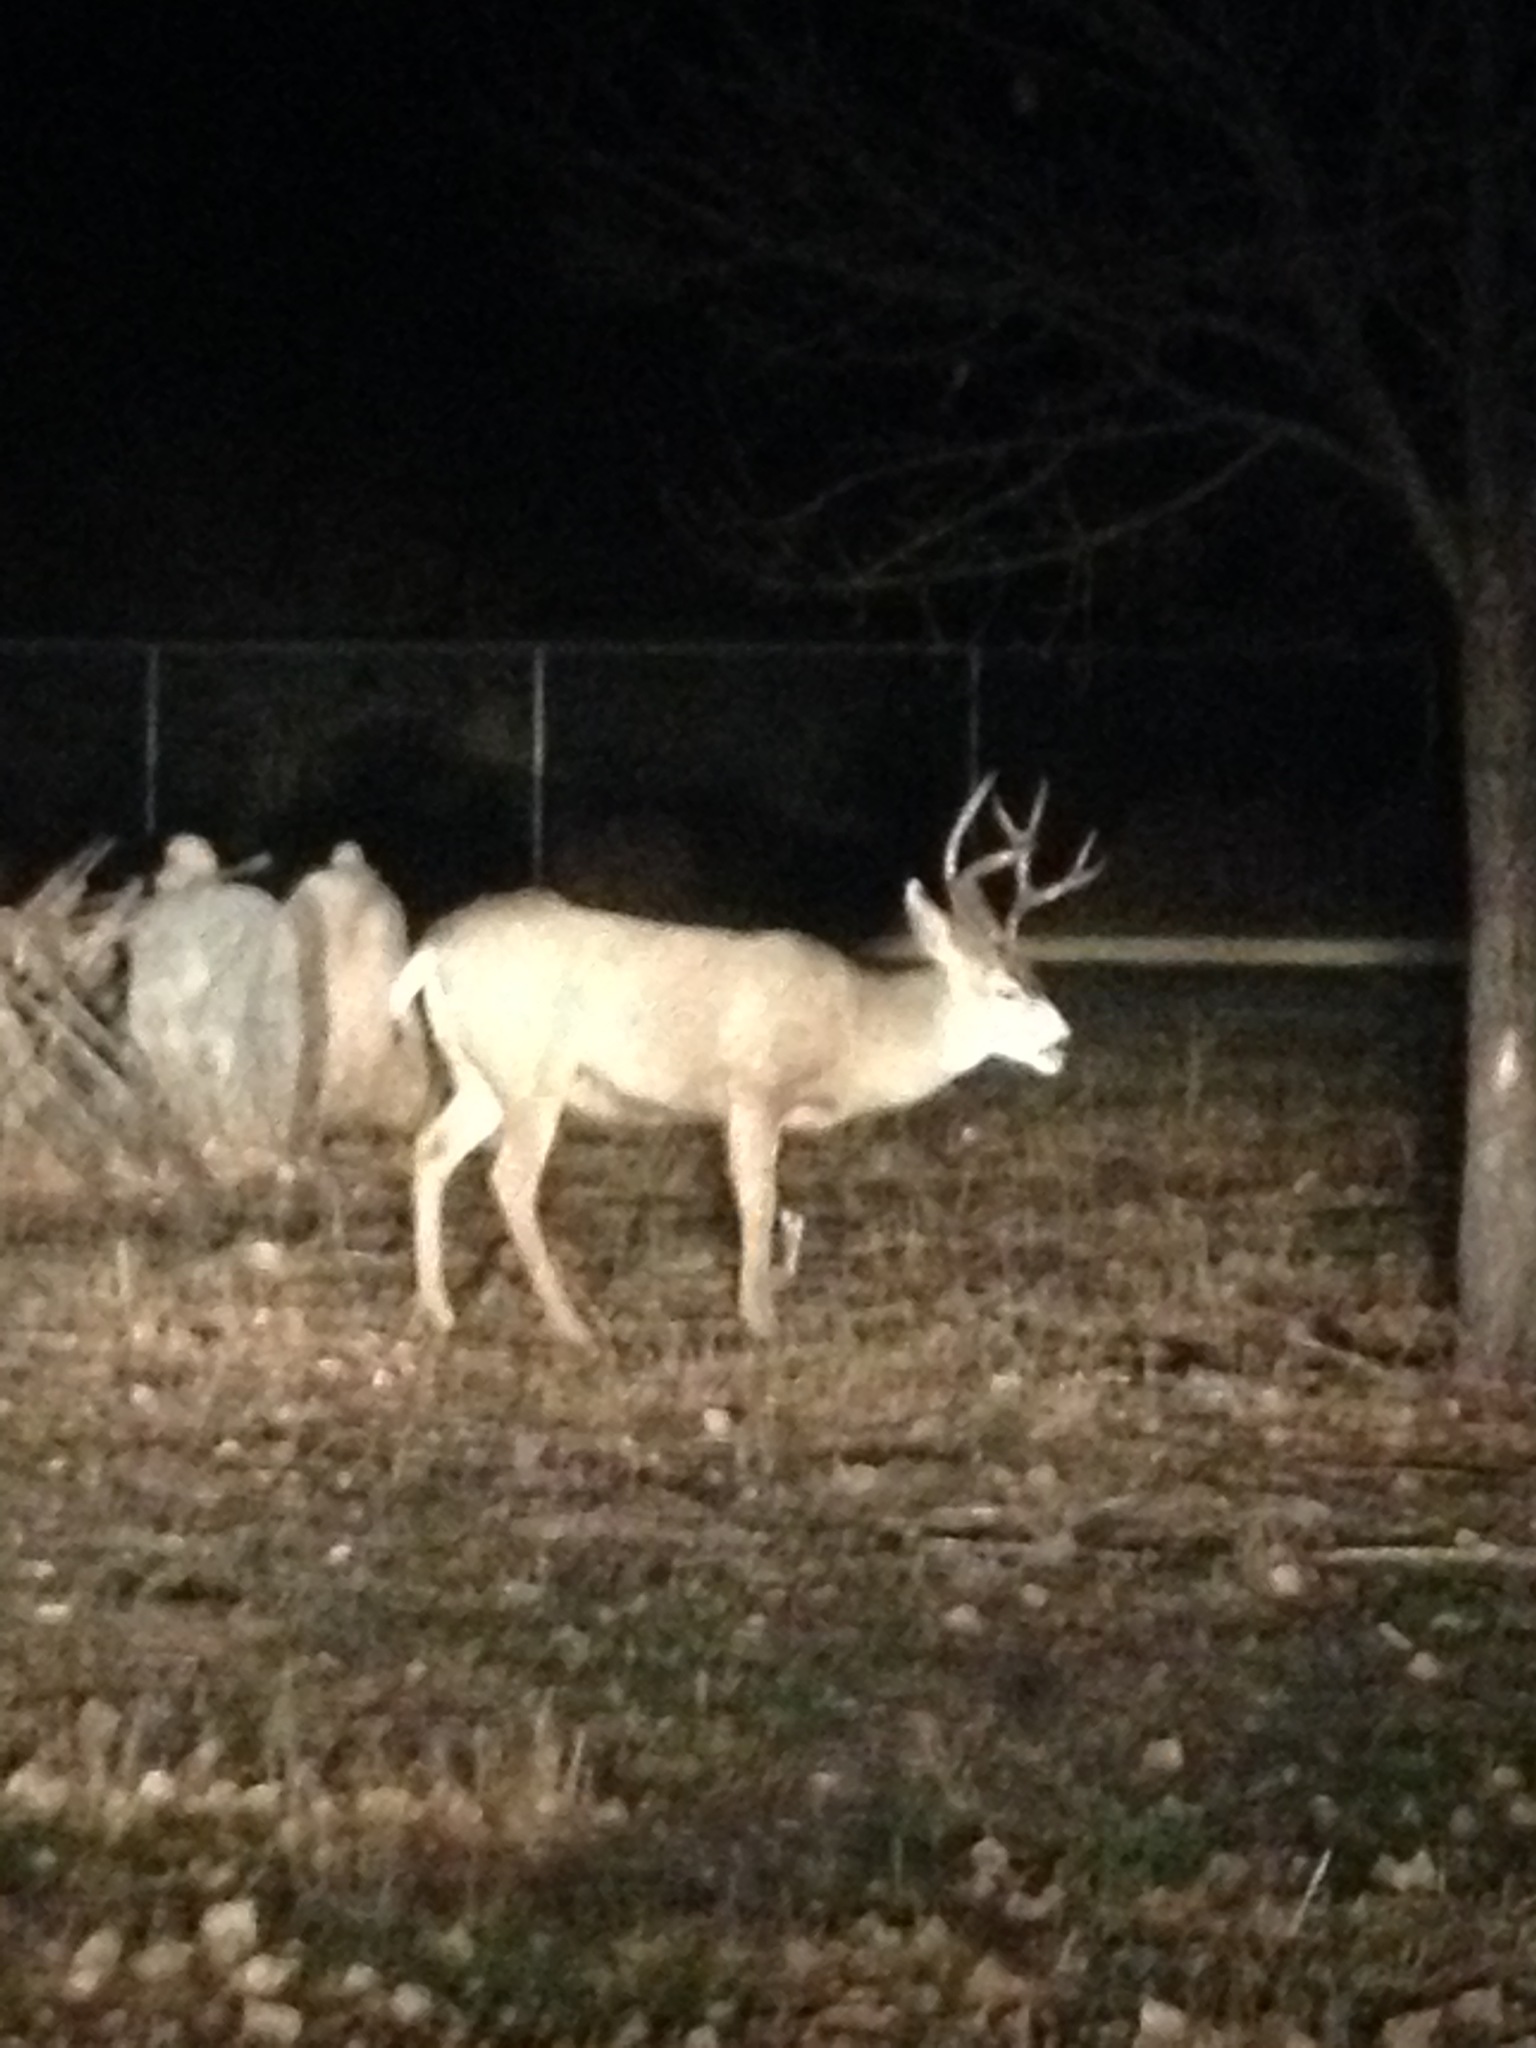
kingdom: Animalia
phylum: Chordata
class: Mammalia
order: Artiodactyla
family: Cervidae
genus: Odocoileus
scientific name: Odocoileus hemionus
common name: Mule deer
